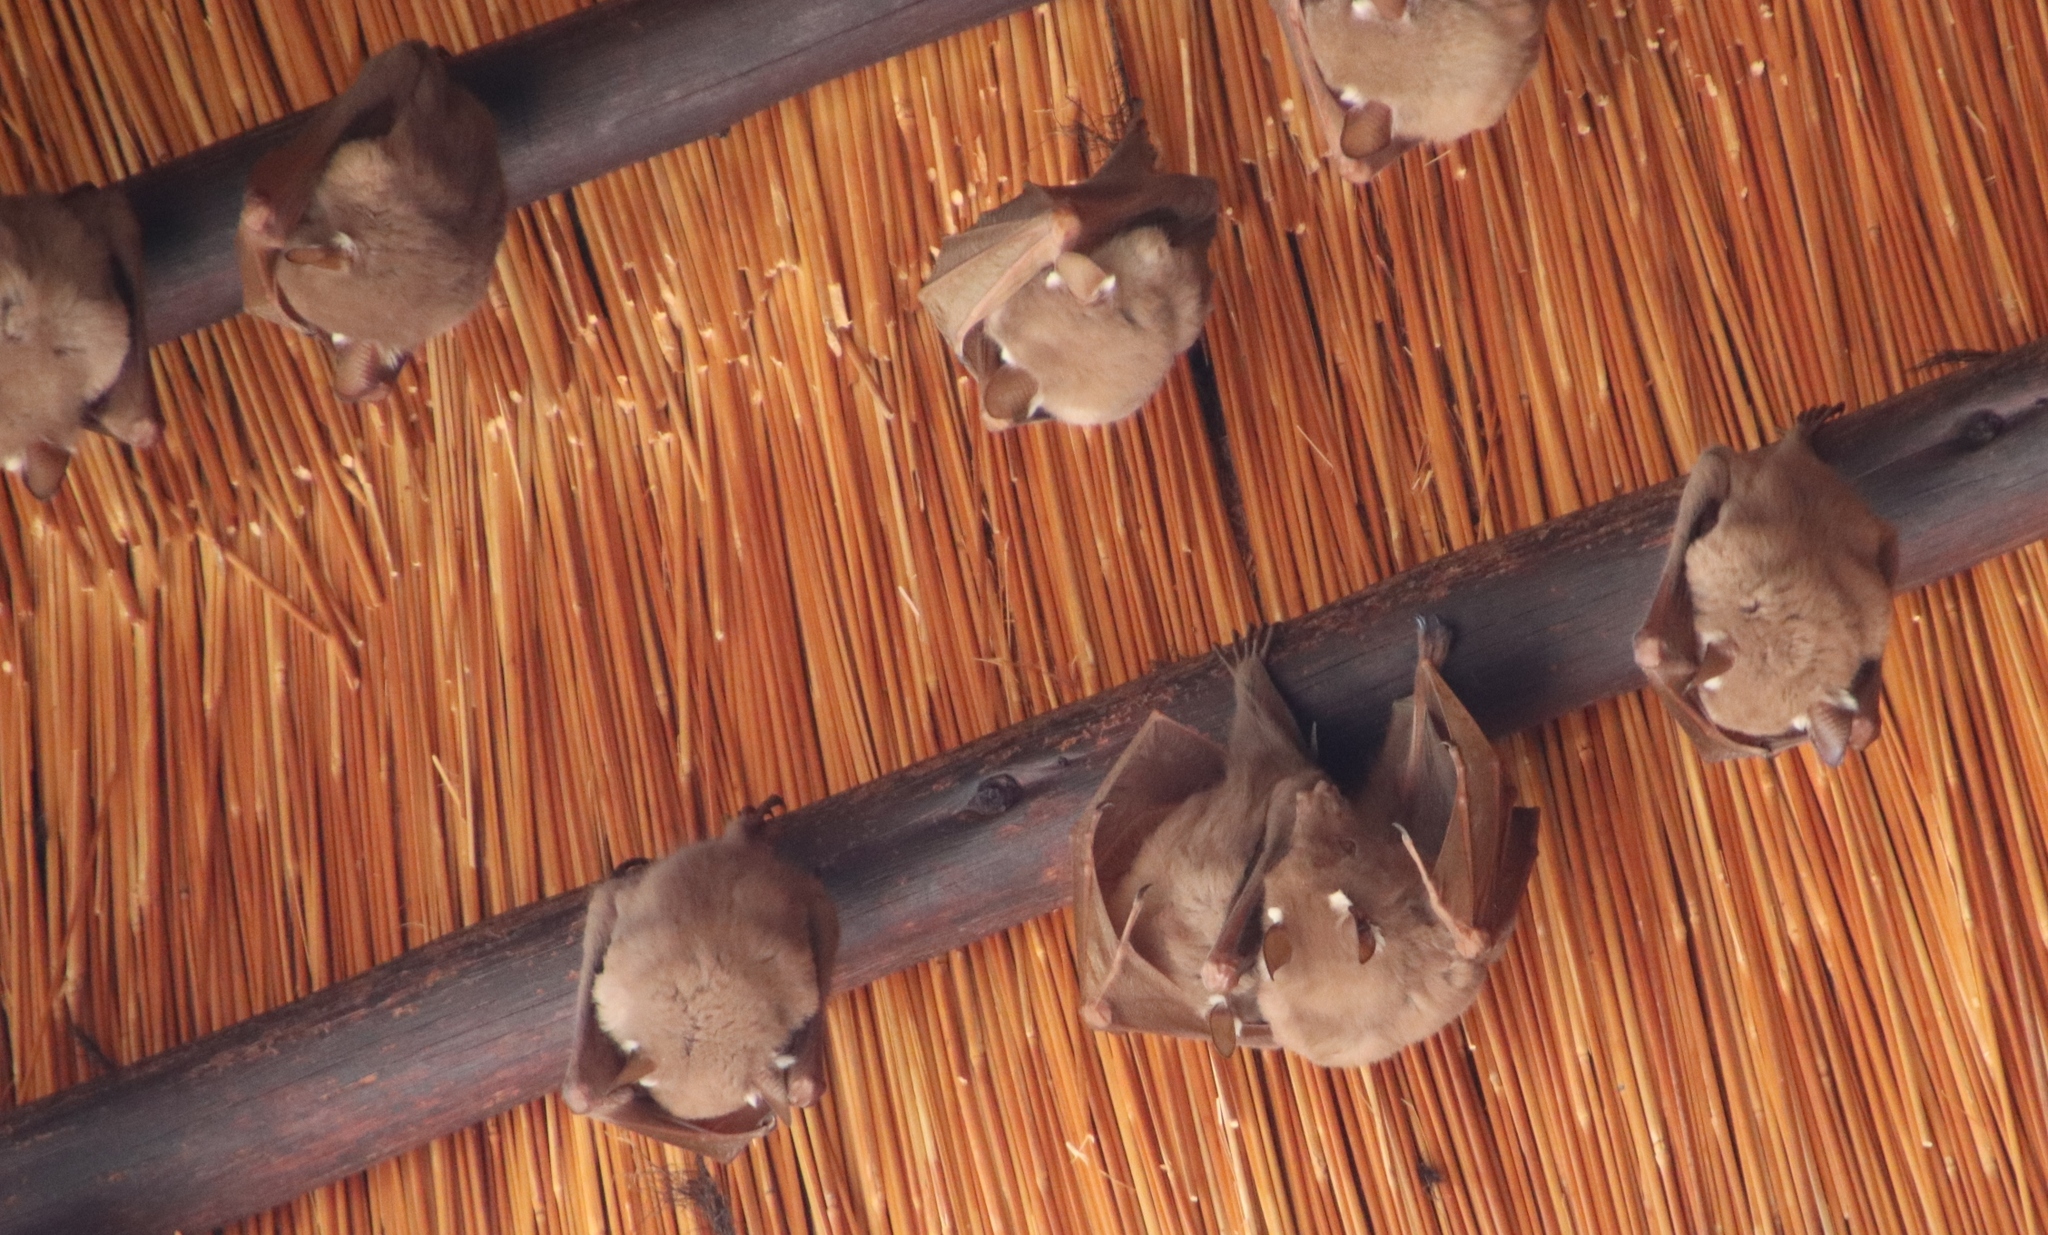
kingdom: Animalia
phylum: Chordata
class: Mammalia
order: Chiroptera
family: Pteropodidae
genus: Epomophorus
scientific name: Epomophorus
